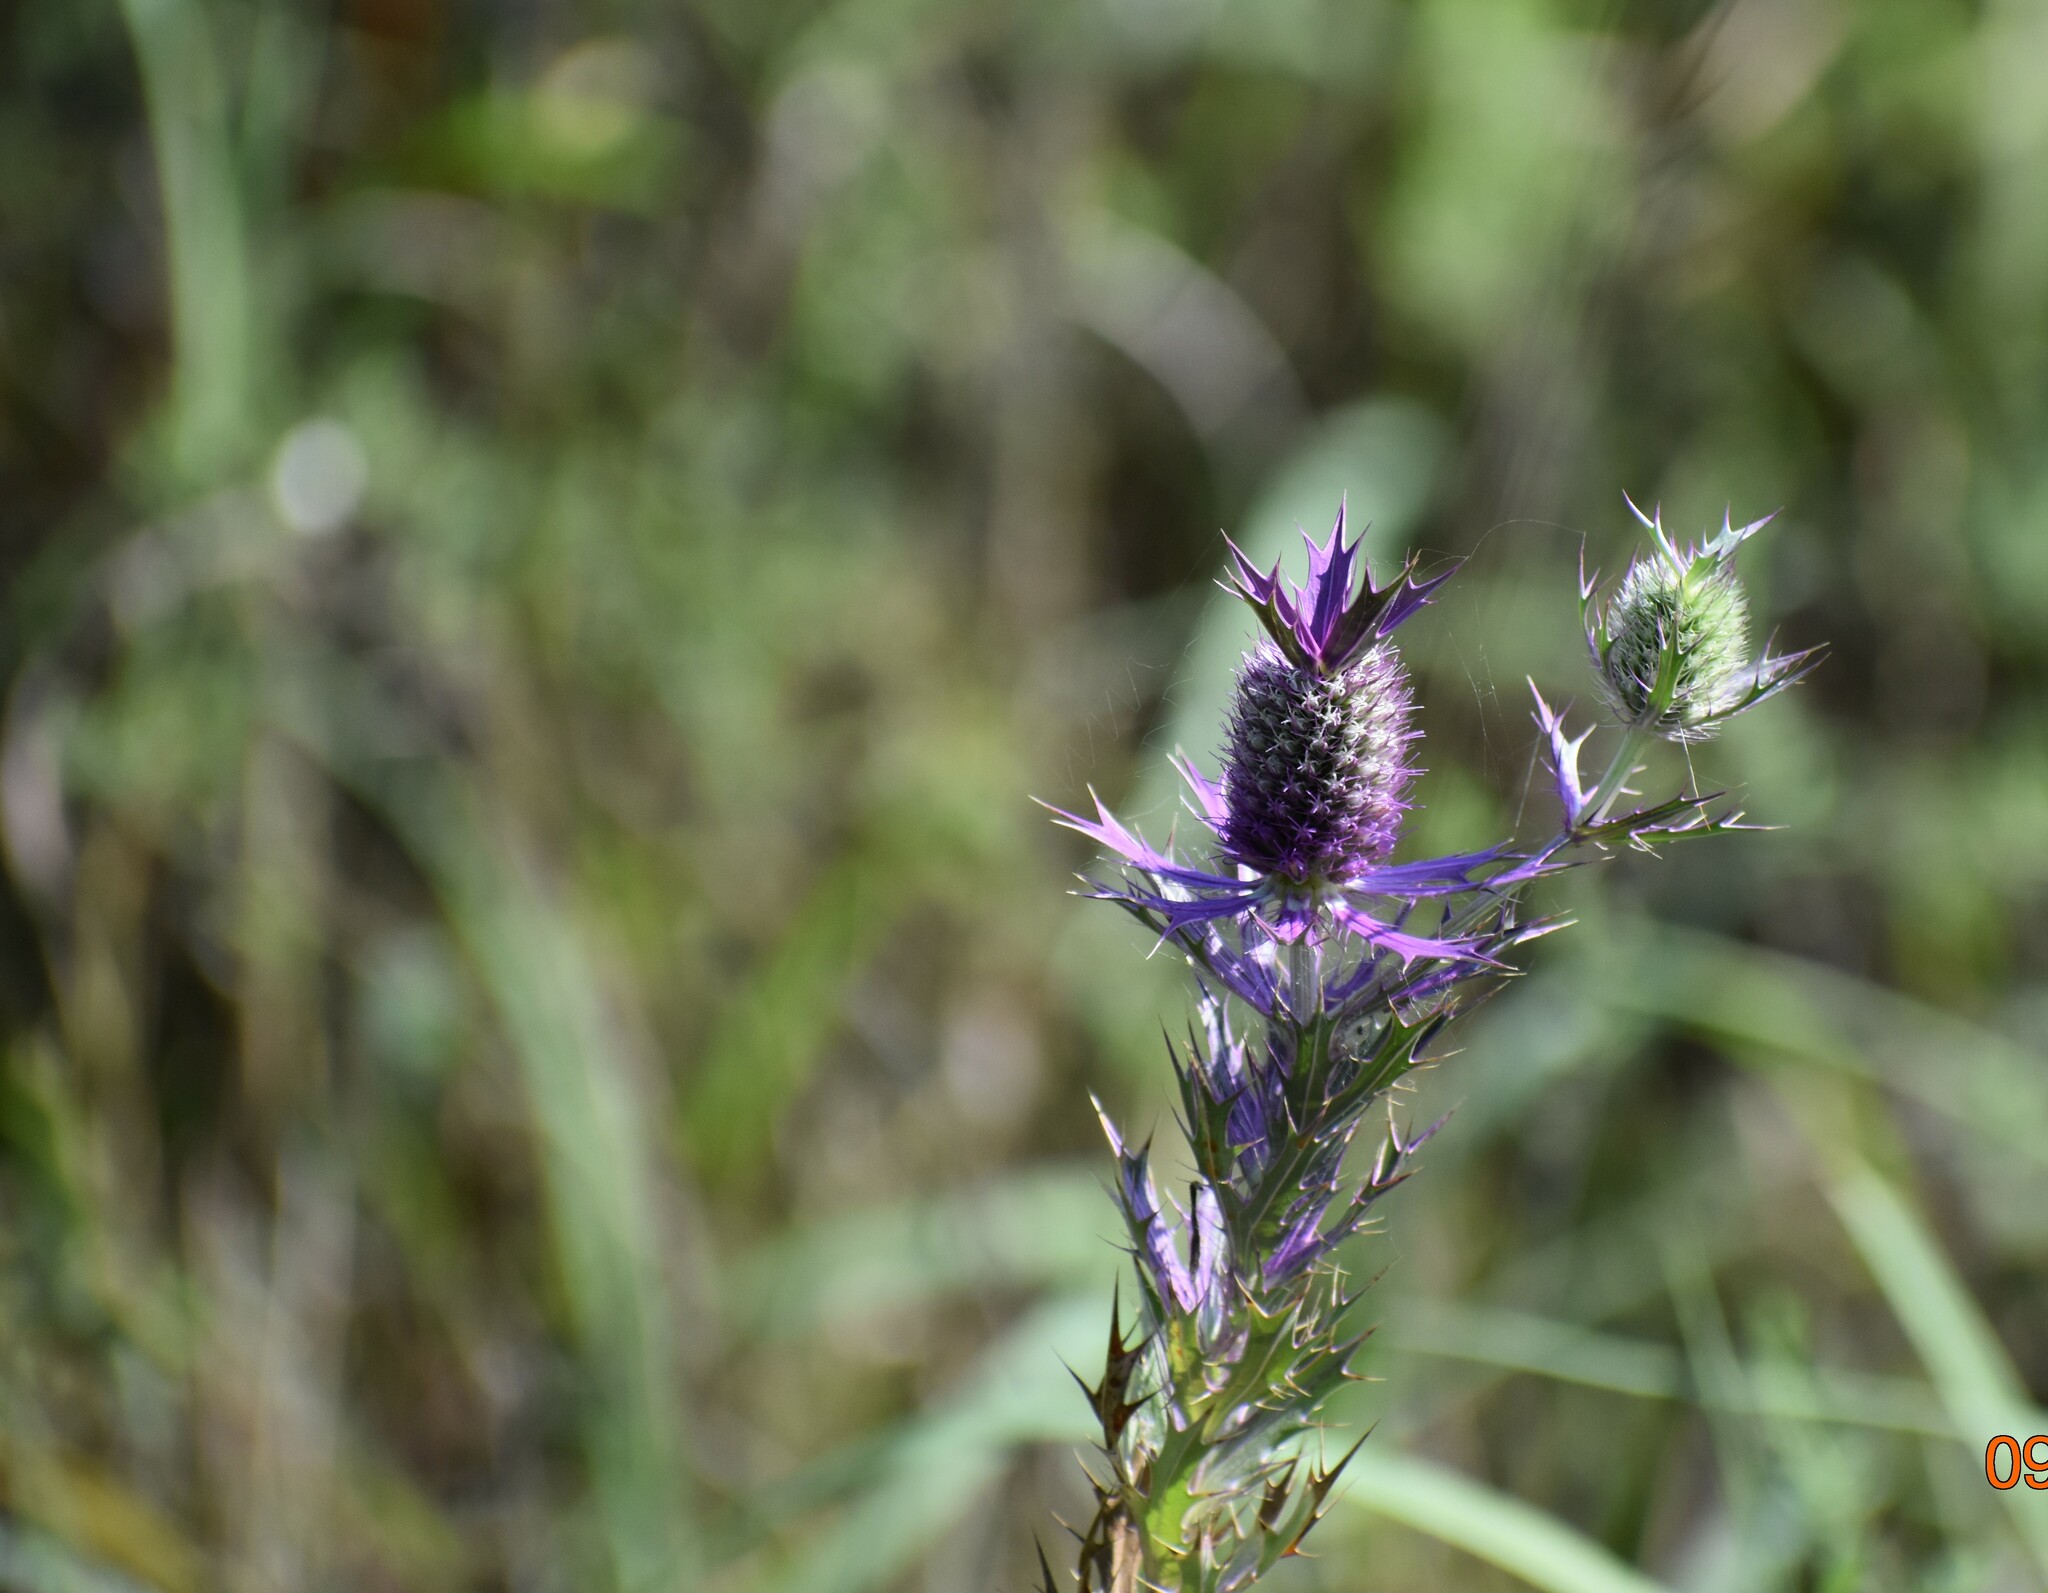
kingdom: Plantae
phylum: Tracheophyta
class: Magnoliopsida
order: Apiales
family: Apiaceae
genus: Eryngium
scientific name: Eryngium leavenworthii
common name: Leavenworth's eryngo
